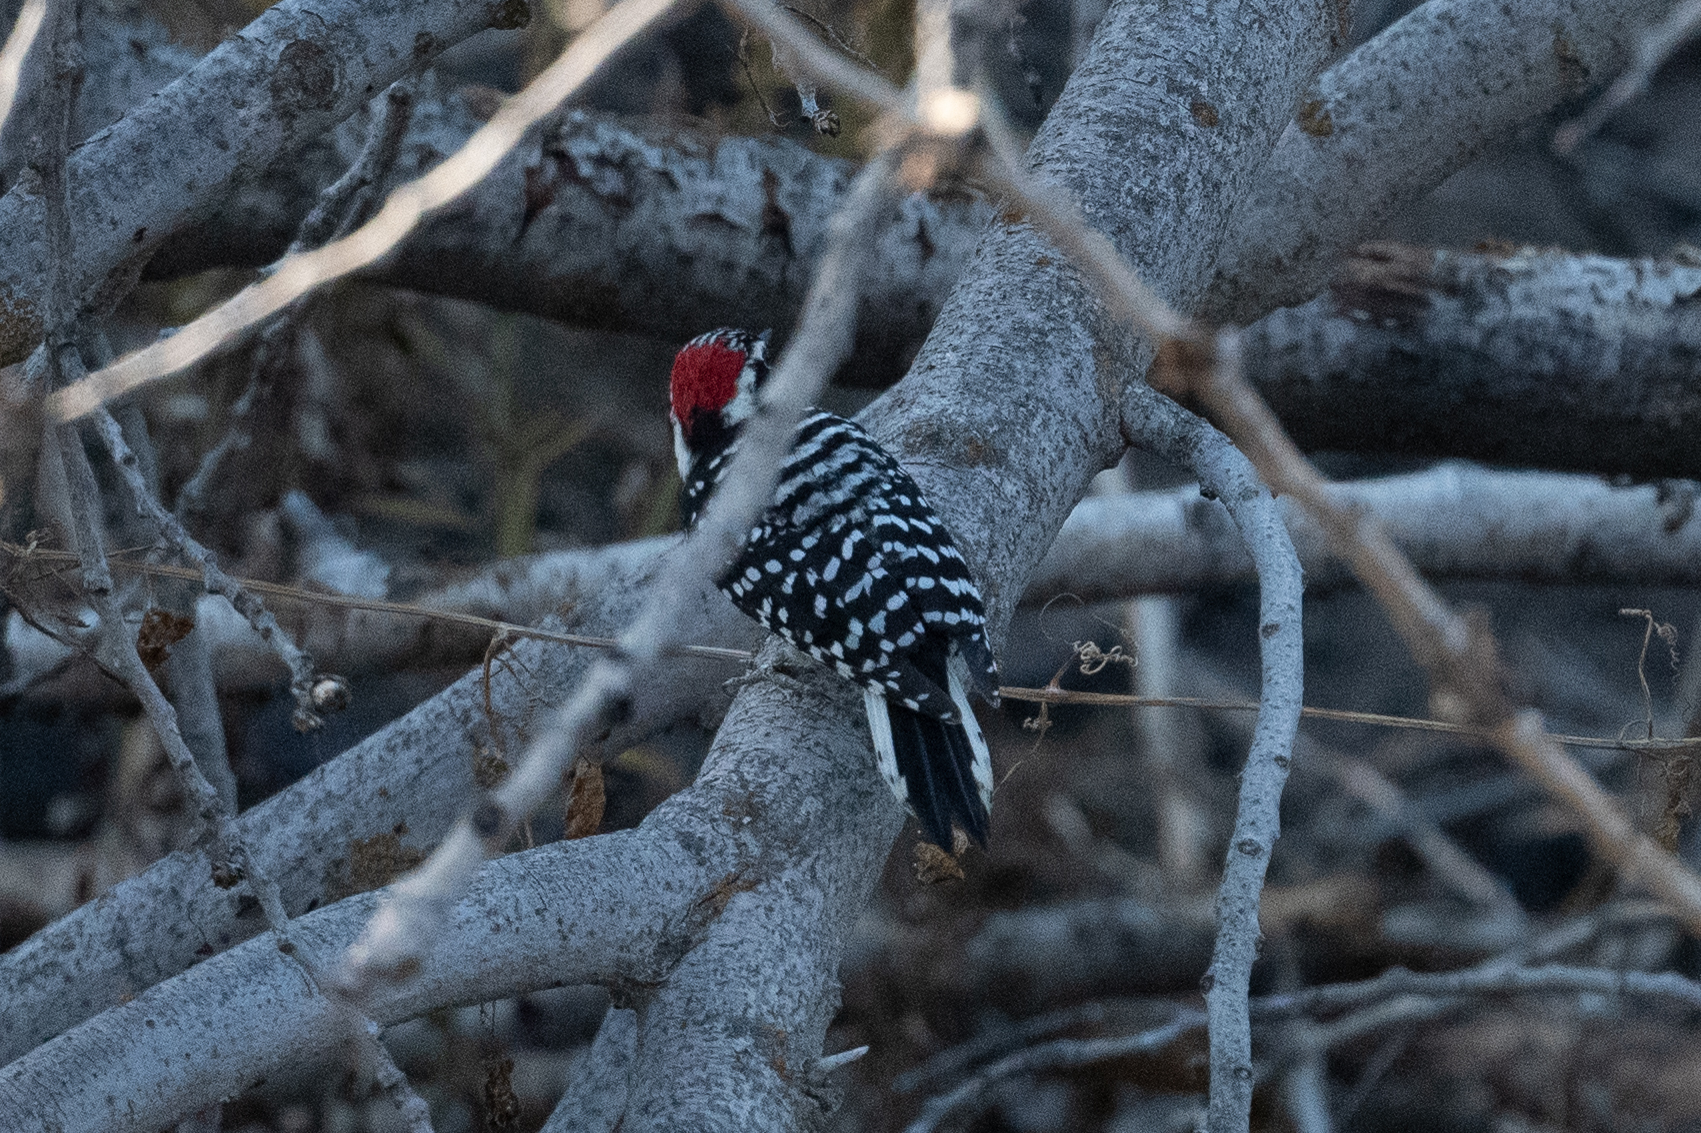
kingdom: Animalia
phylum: Chordata
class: Aves
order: Piciformes
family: Picidae
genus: Dryobates
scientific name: Dryobates nuttallii
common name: Nuttall's woodpecker
